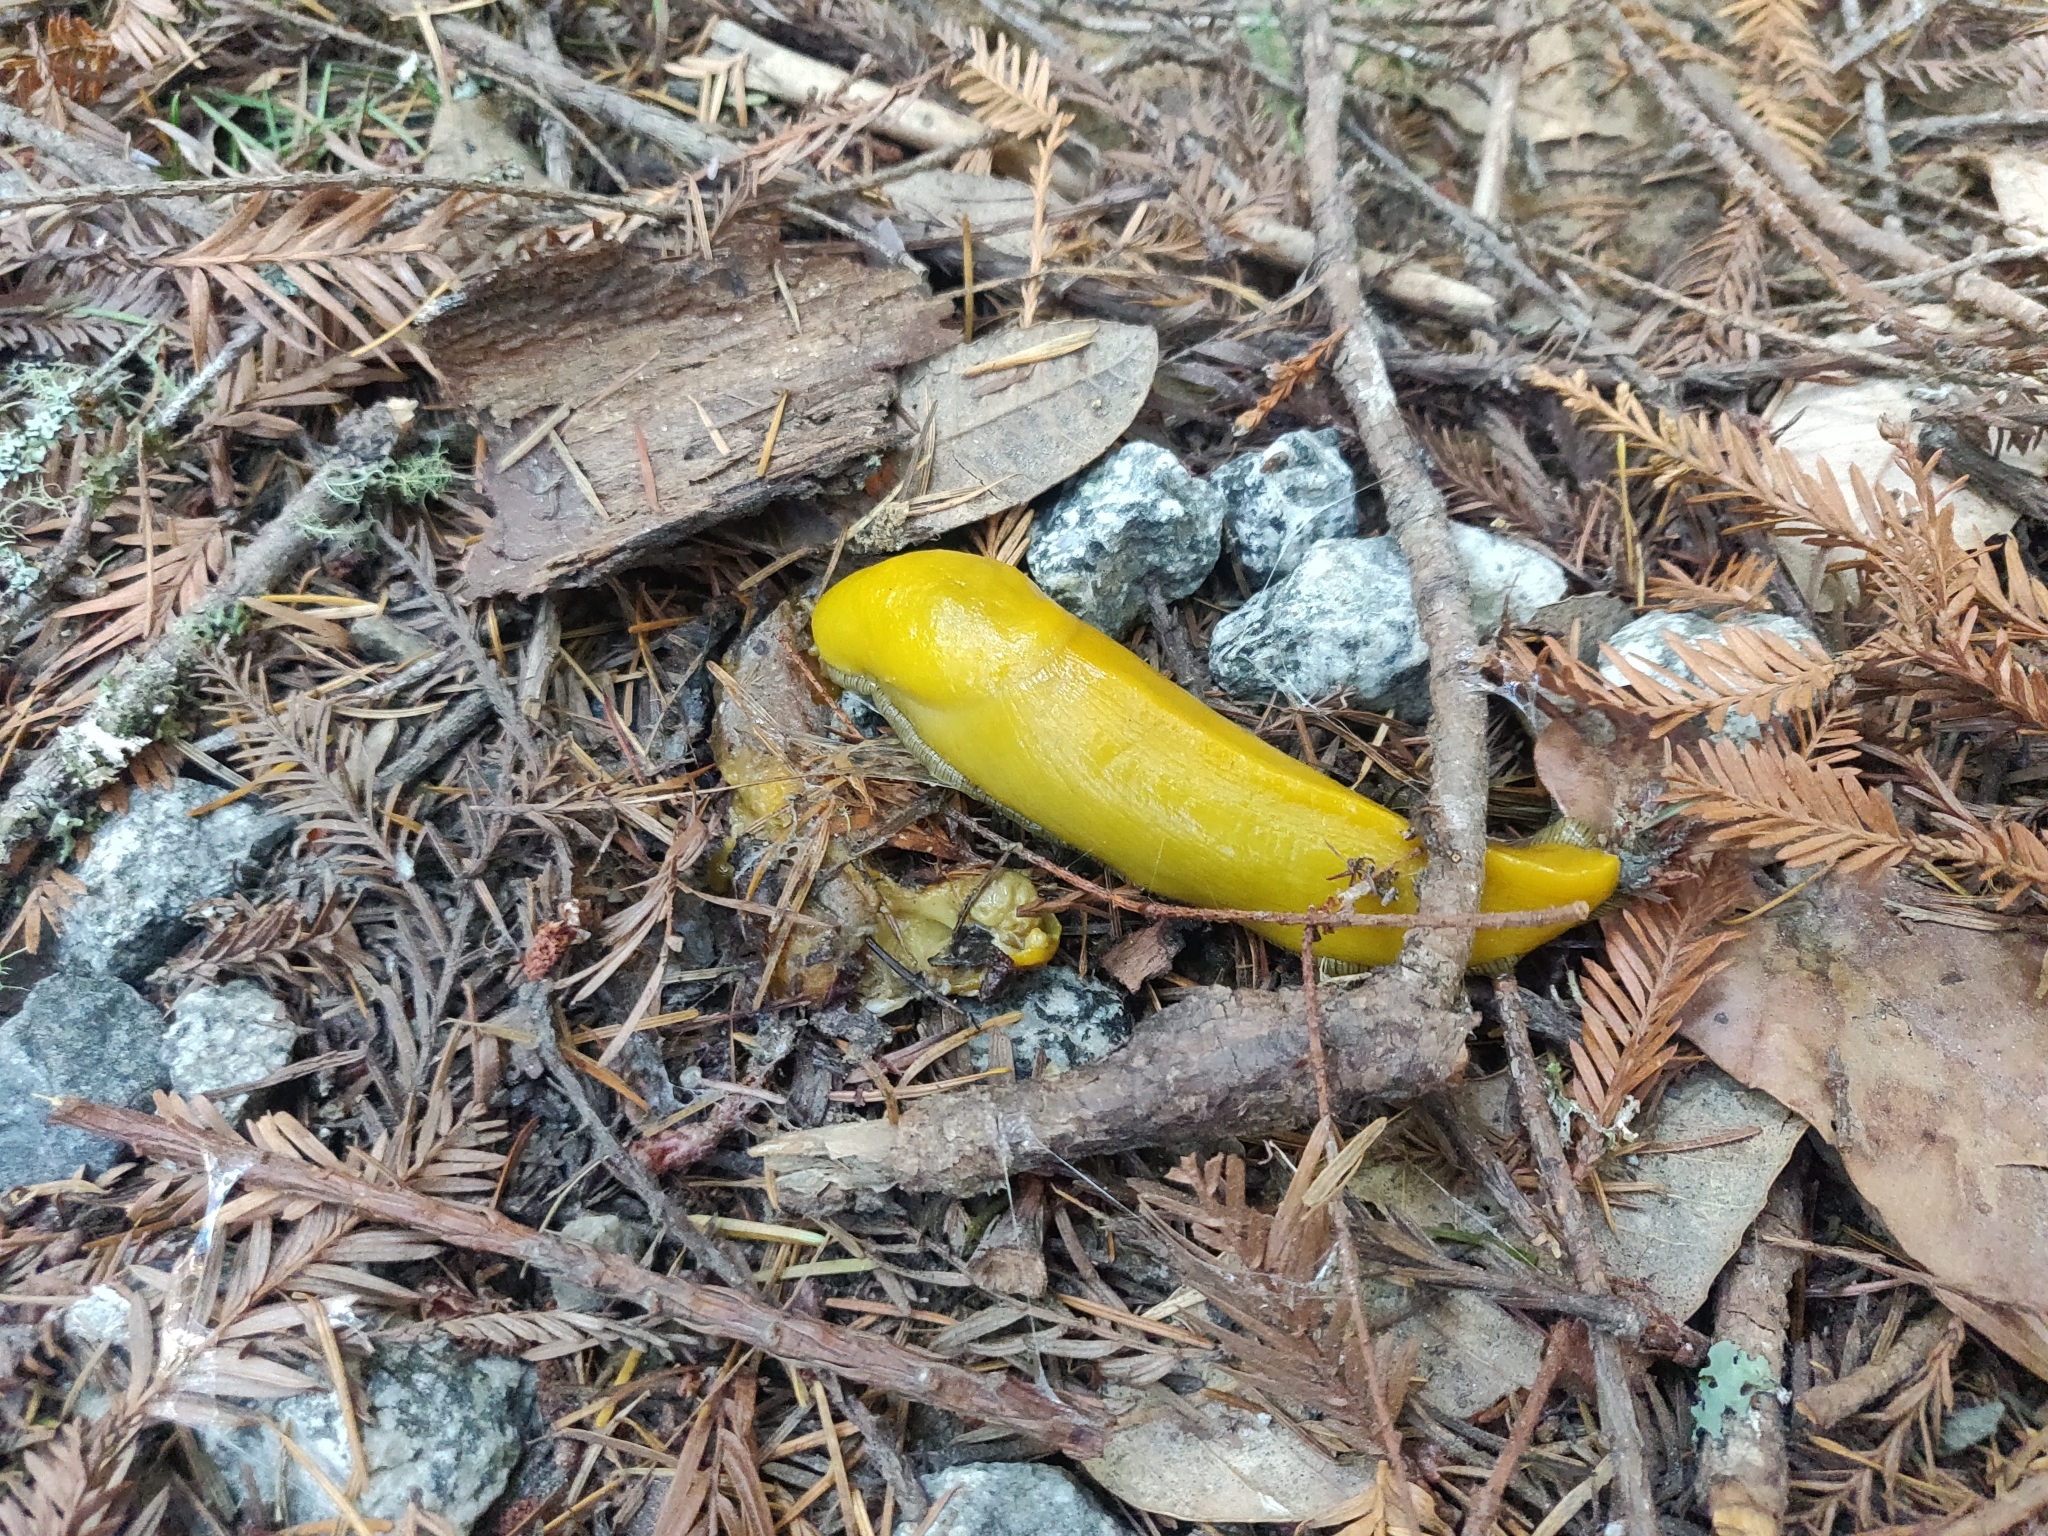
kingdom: Animalia
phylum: Mollusca
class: Gastropoda
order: Stylommatophora
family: Ariolimacidae
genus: Ariolimax
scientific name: Ariolimax californicus
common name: California banana slug
